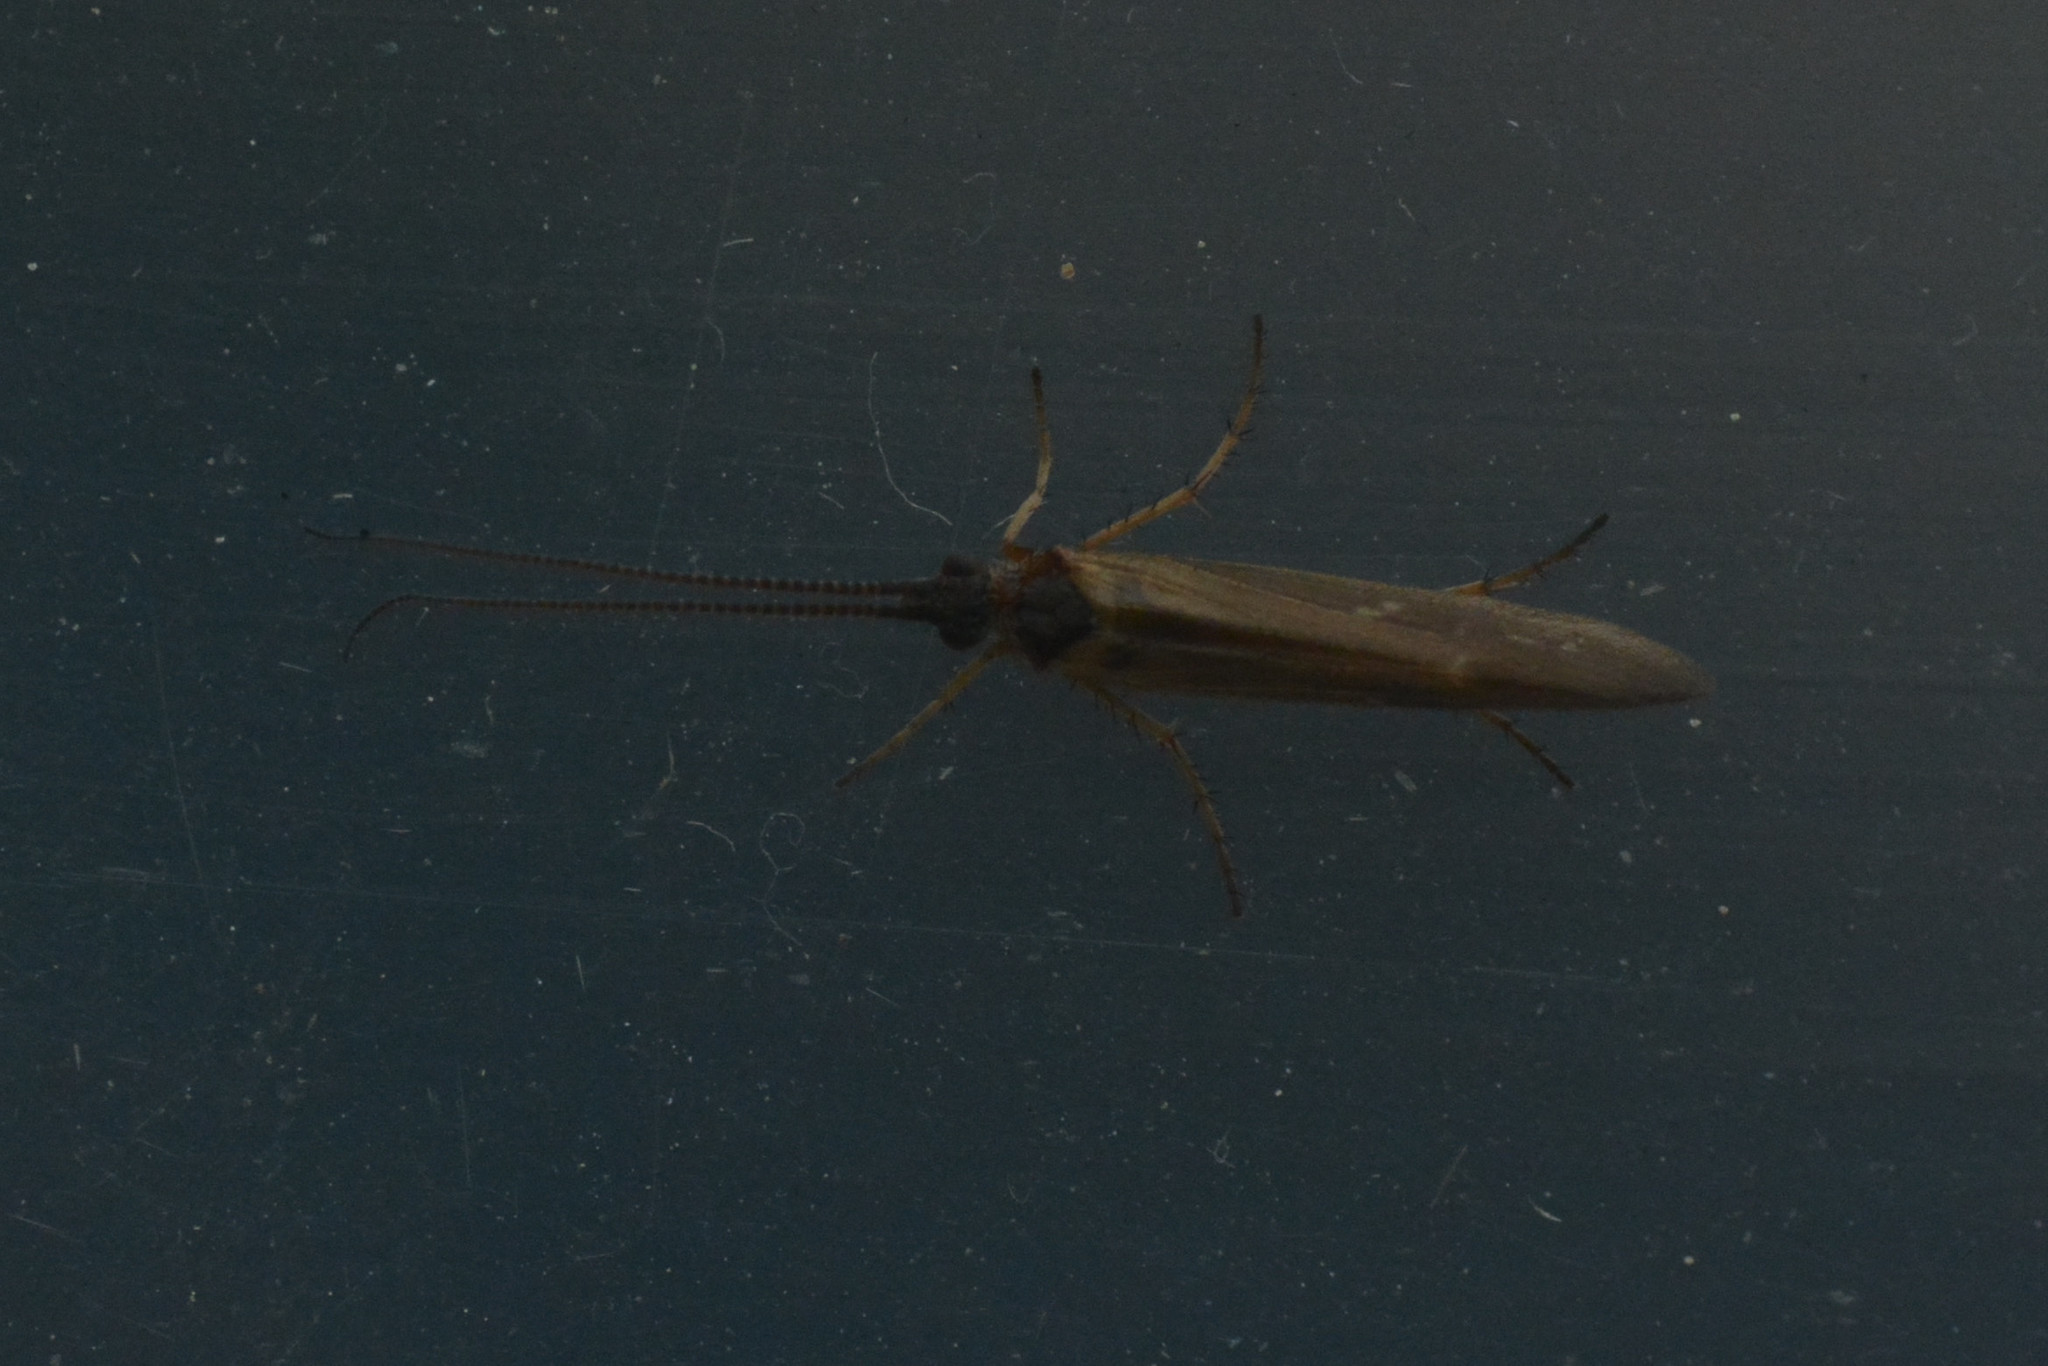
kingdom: Animalia
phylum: Arthropoda
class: Insecta
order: Trichoptera
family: Limnephilidae
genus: Limnephilus
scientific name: Limnephilus auricula
